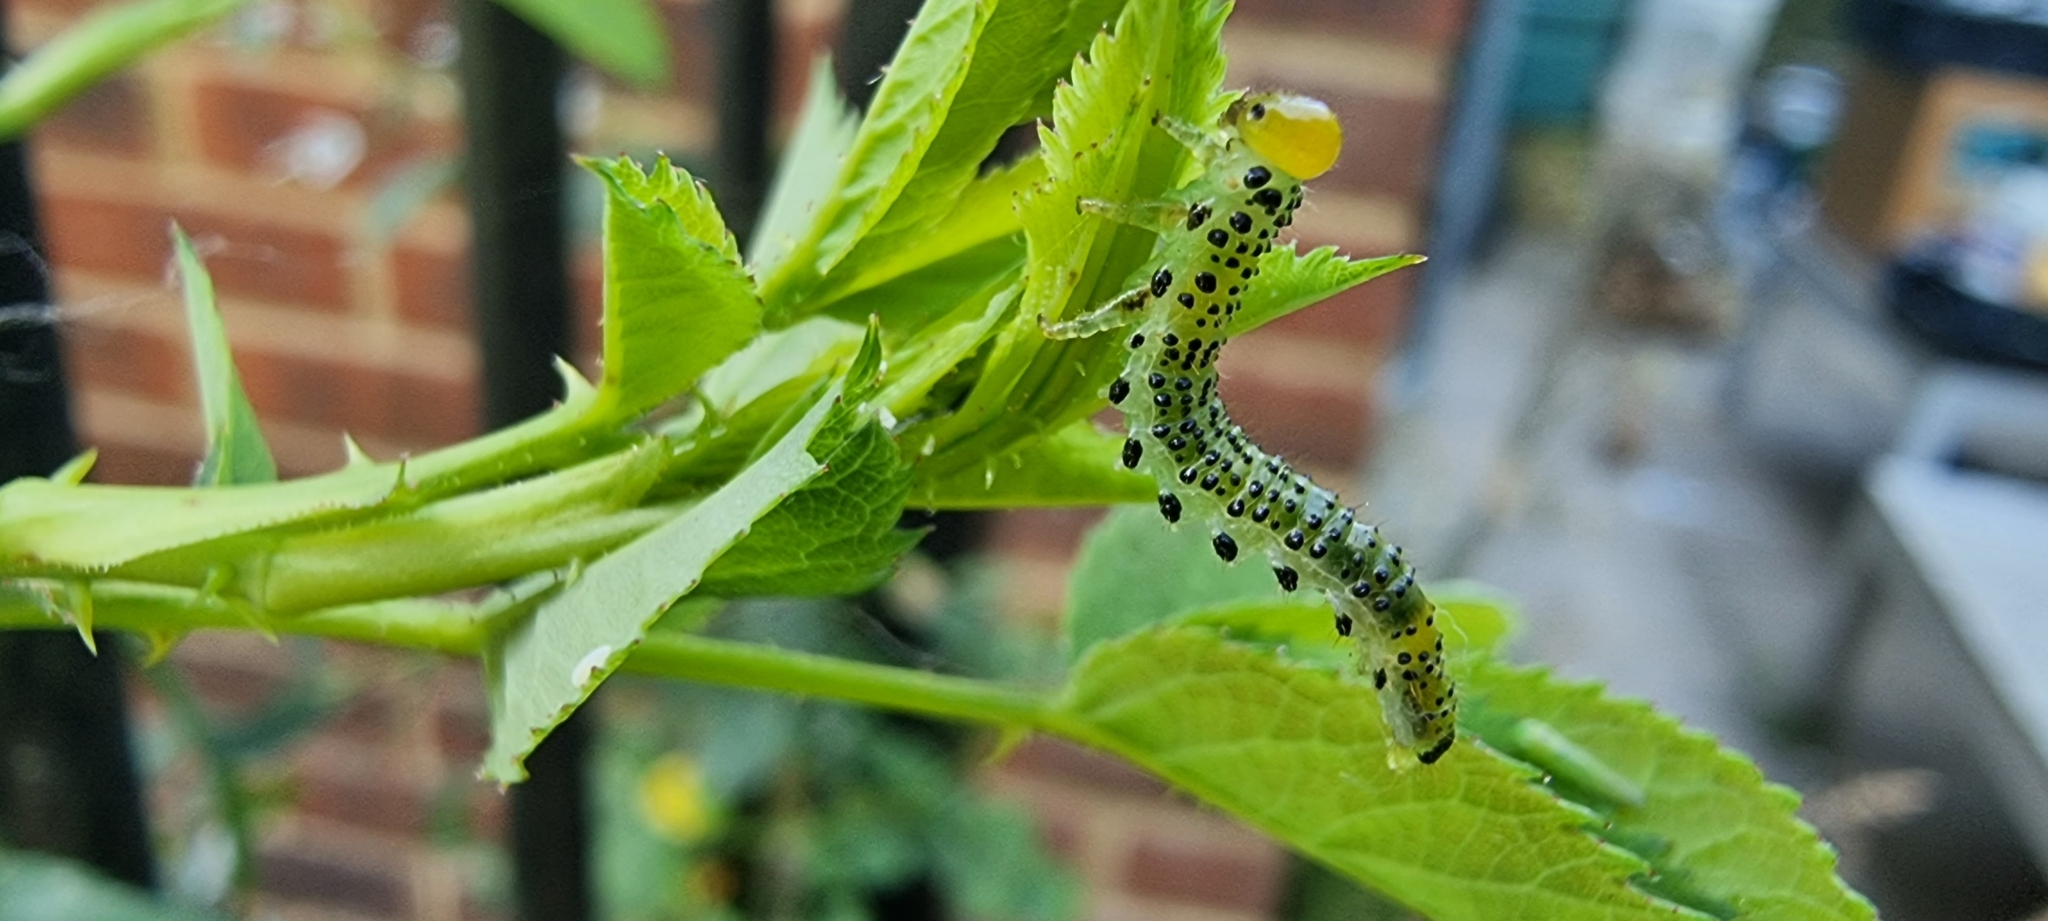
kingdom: Animalia
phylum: Arthropoda
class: Insecta
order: Hymenoptera
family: Argidae
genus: Arge
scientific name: Arge pagana
